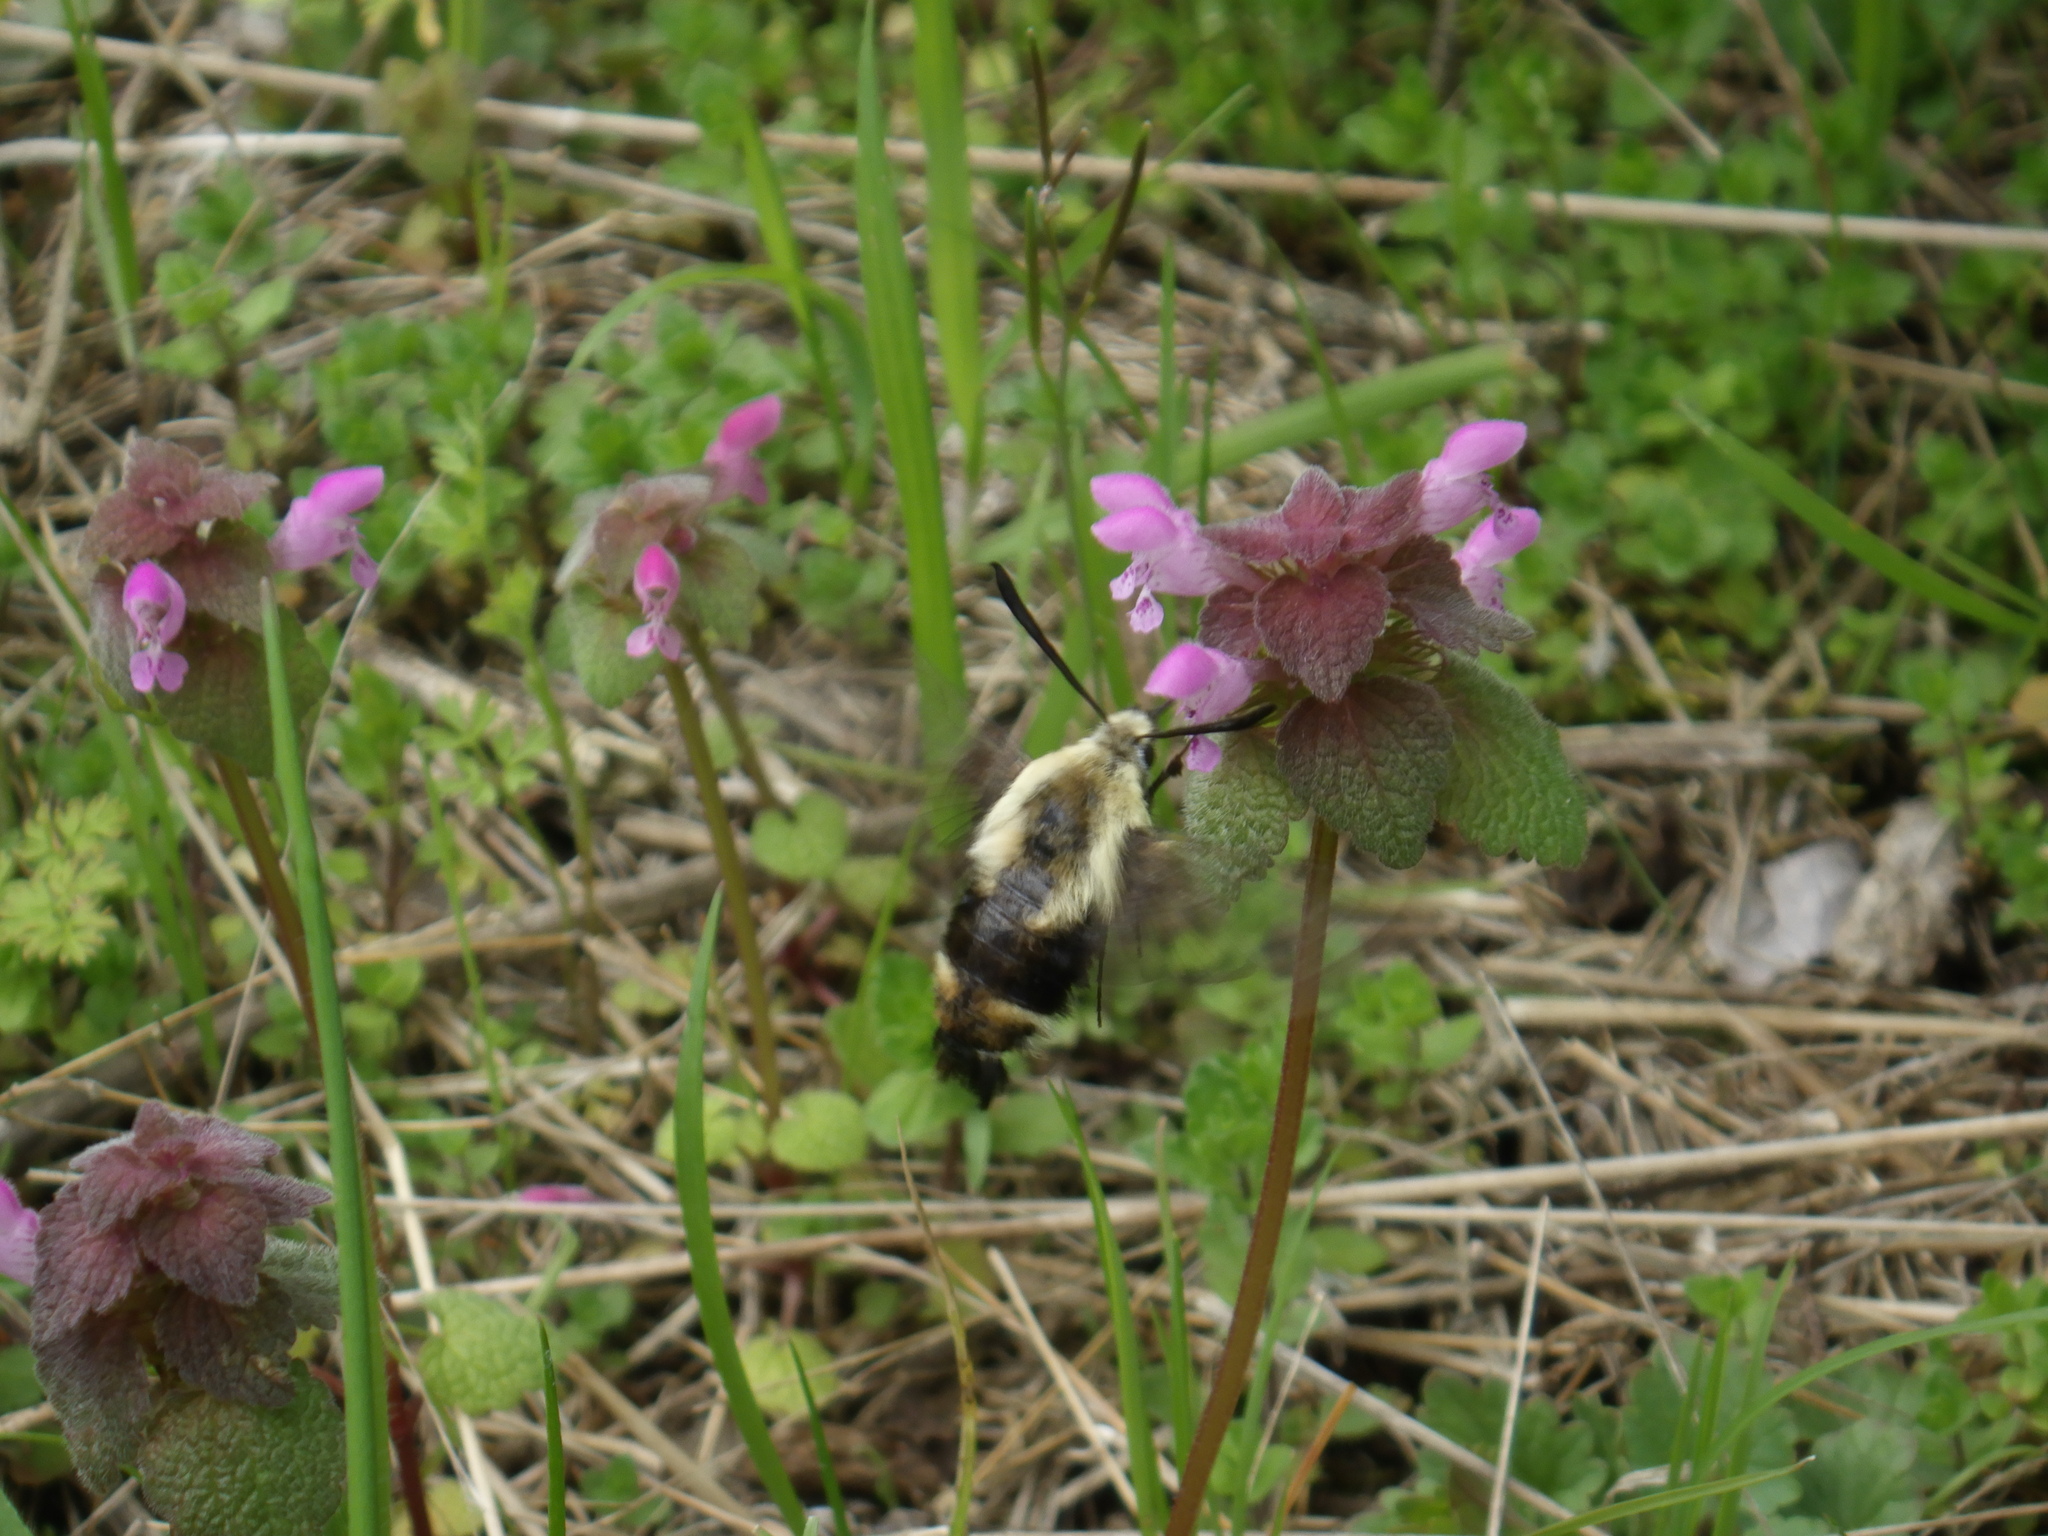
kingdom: Animalia
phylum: Arthropoda
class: Insecta
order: Lepidoptera
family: Sphingidae
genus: Hemaris
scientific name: Hemaris diffinis
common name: Bumblebee moth
